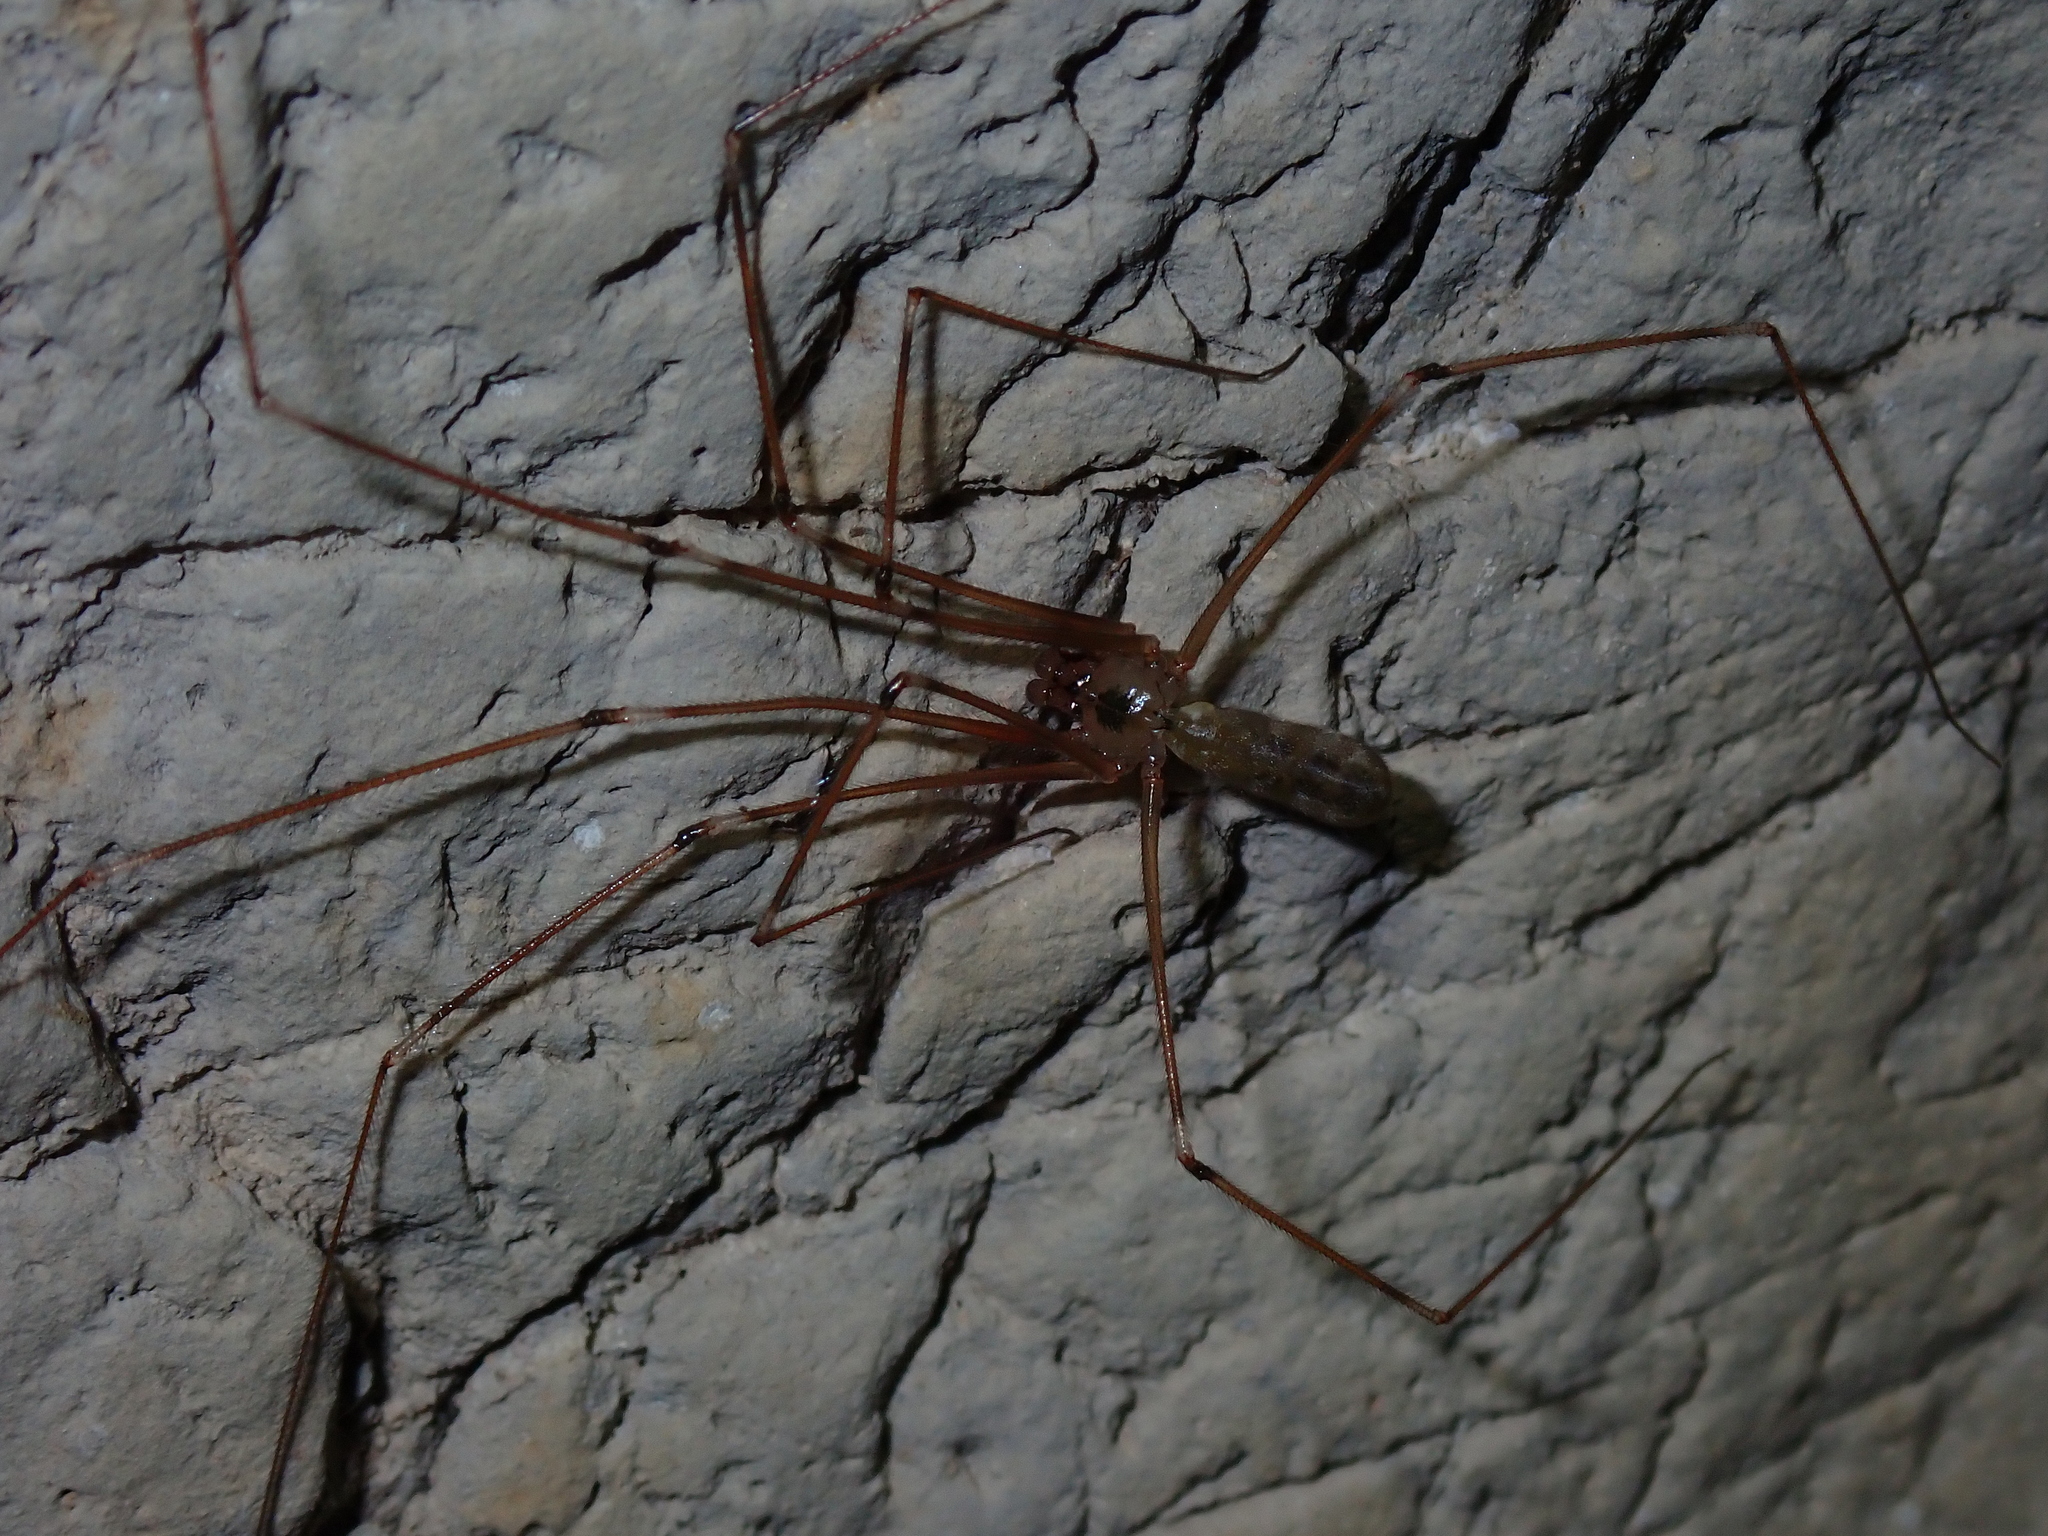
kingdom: Animalia
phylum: Arthropoda
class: Arachnida
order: Araneae
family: Pholcidae
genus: Pholcus
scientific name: Pholcus phalangioides
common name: Longbodied cellar spider
